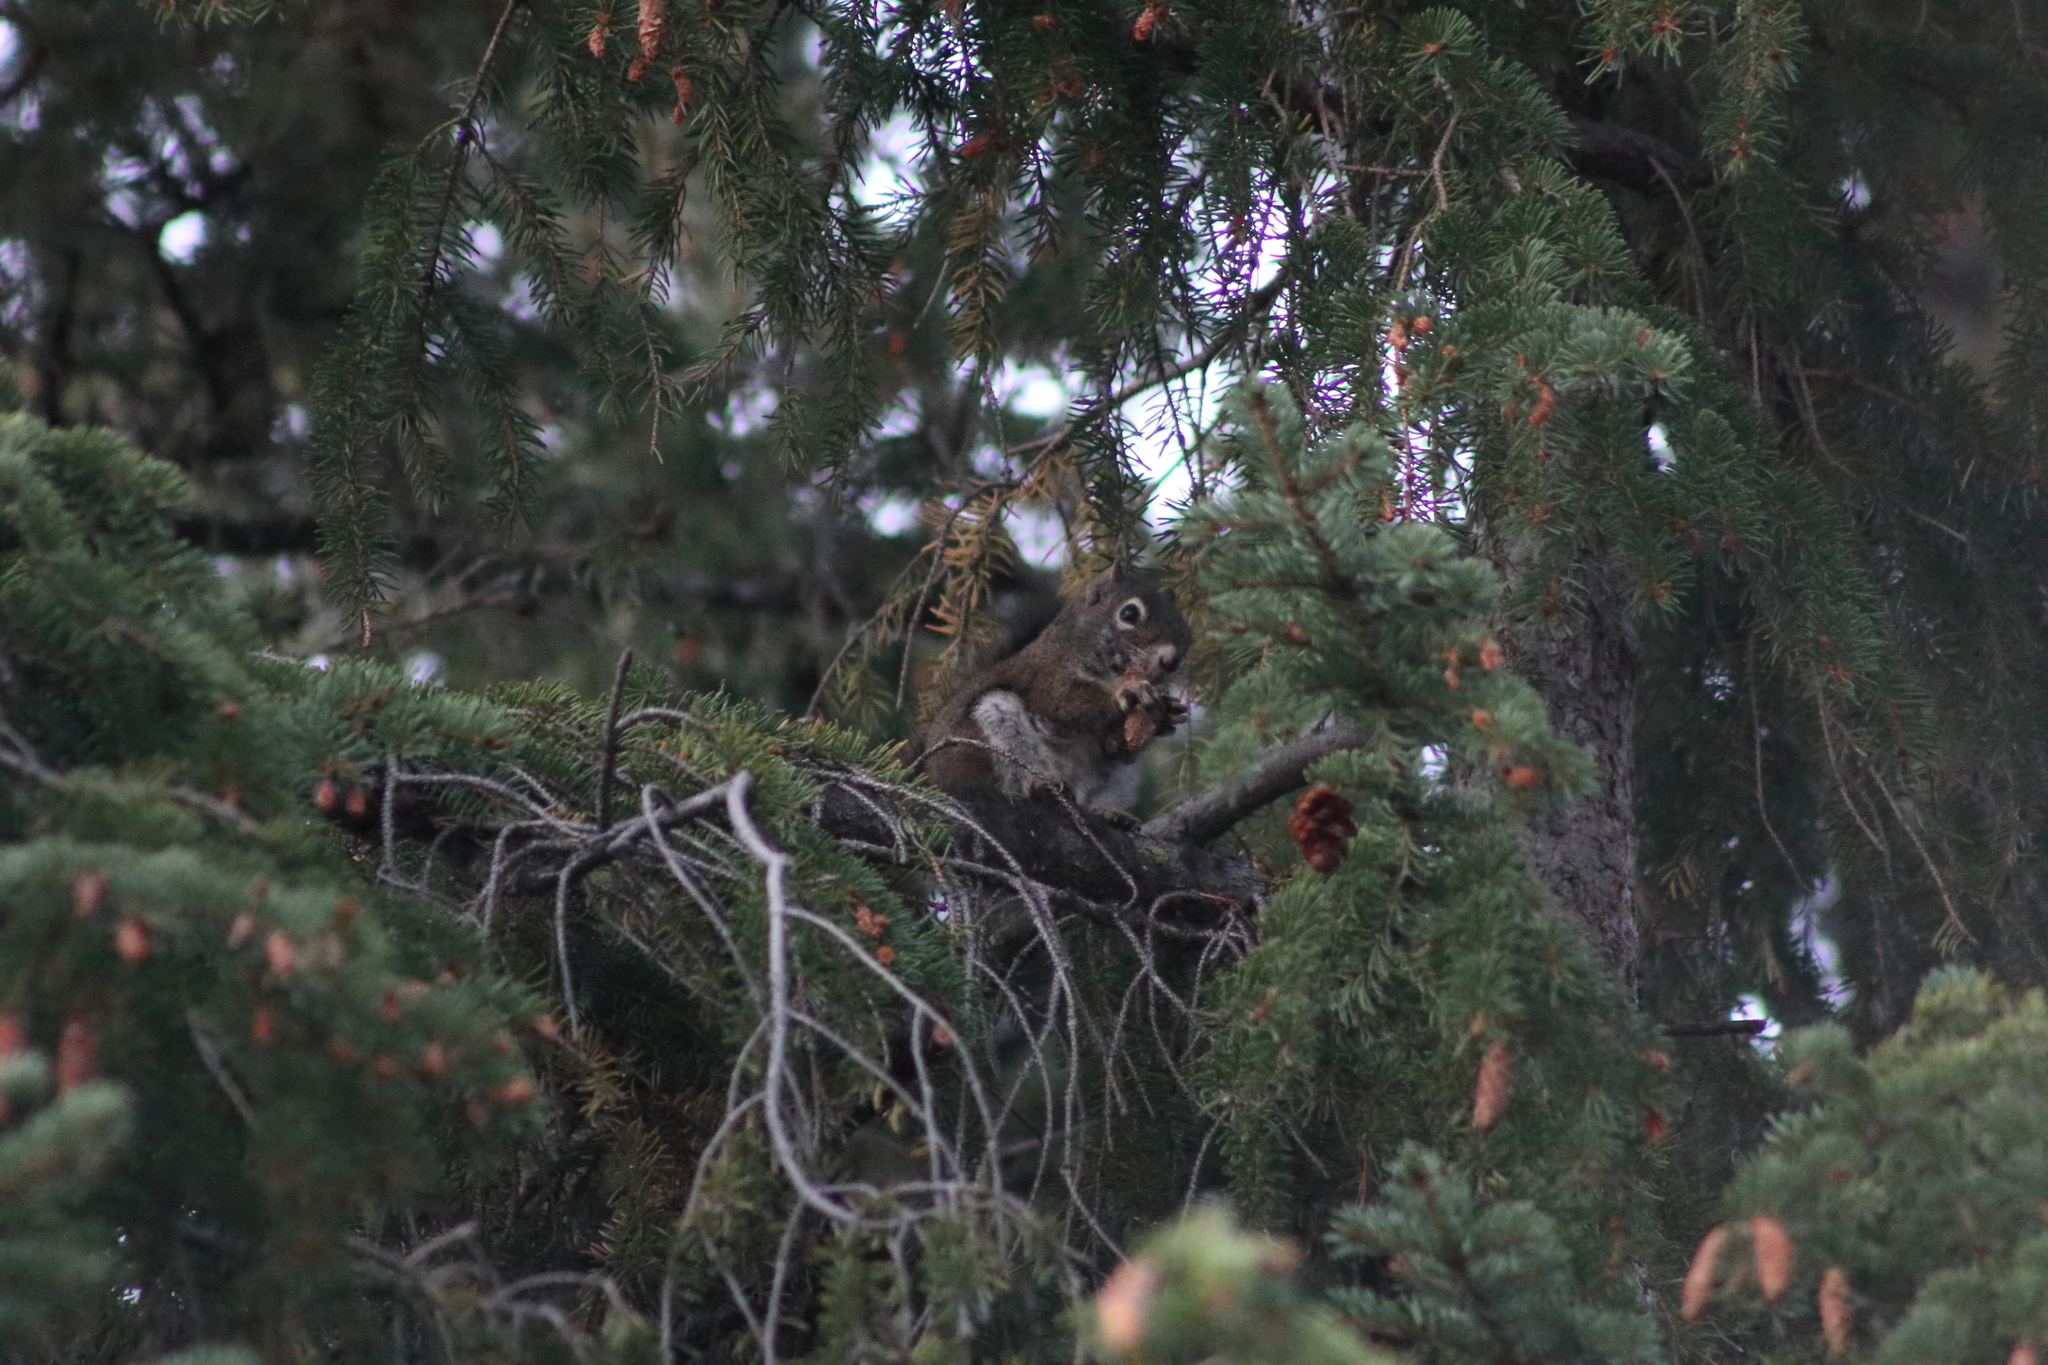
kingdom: Animalia
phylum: Chordata
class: Mammalia
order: Rodentia
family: Sciuridae
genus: Tamiasciurus
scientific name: Tamiasciurus hudsonicus
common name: Red squirrel
